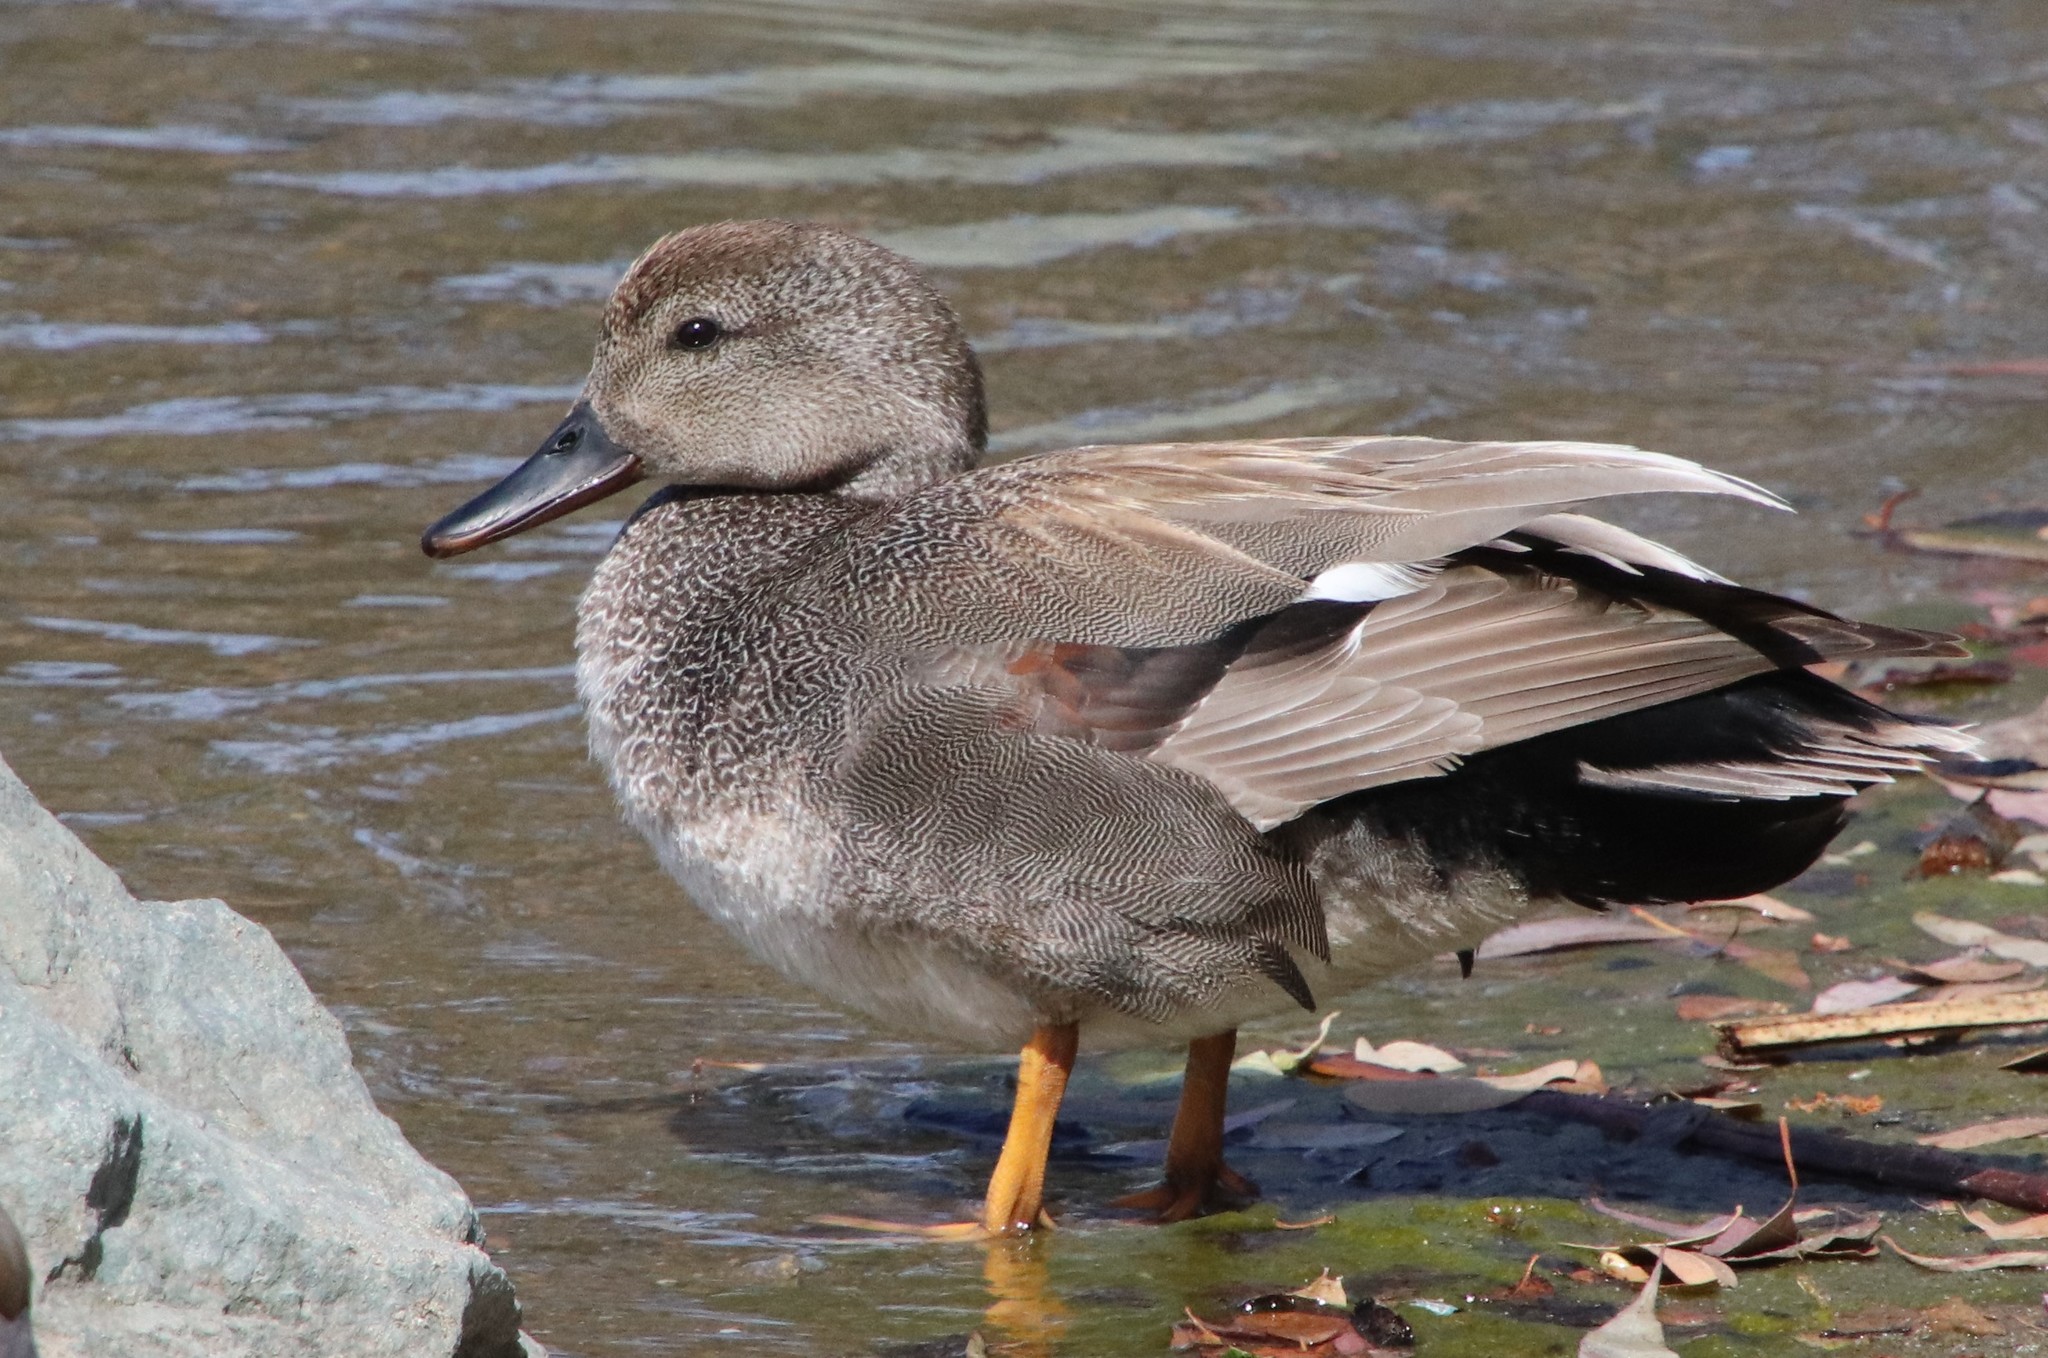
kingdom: Animalia
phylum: Chordata
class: Aves
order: Anseriformes
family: Anatidae
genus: Mareca
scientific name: Mareca strepera
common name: Gadwall
